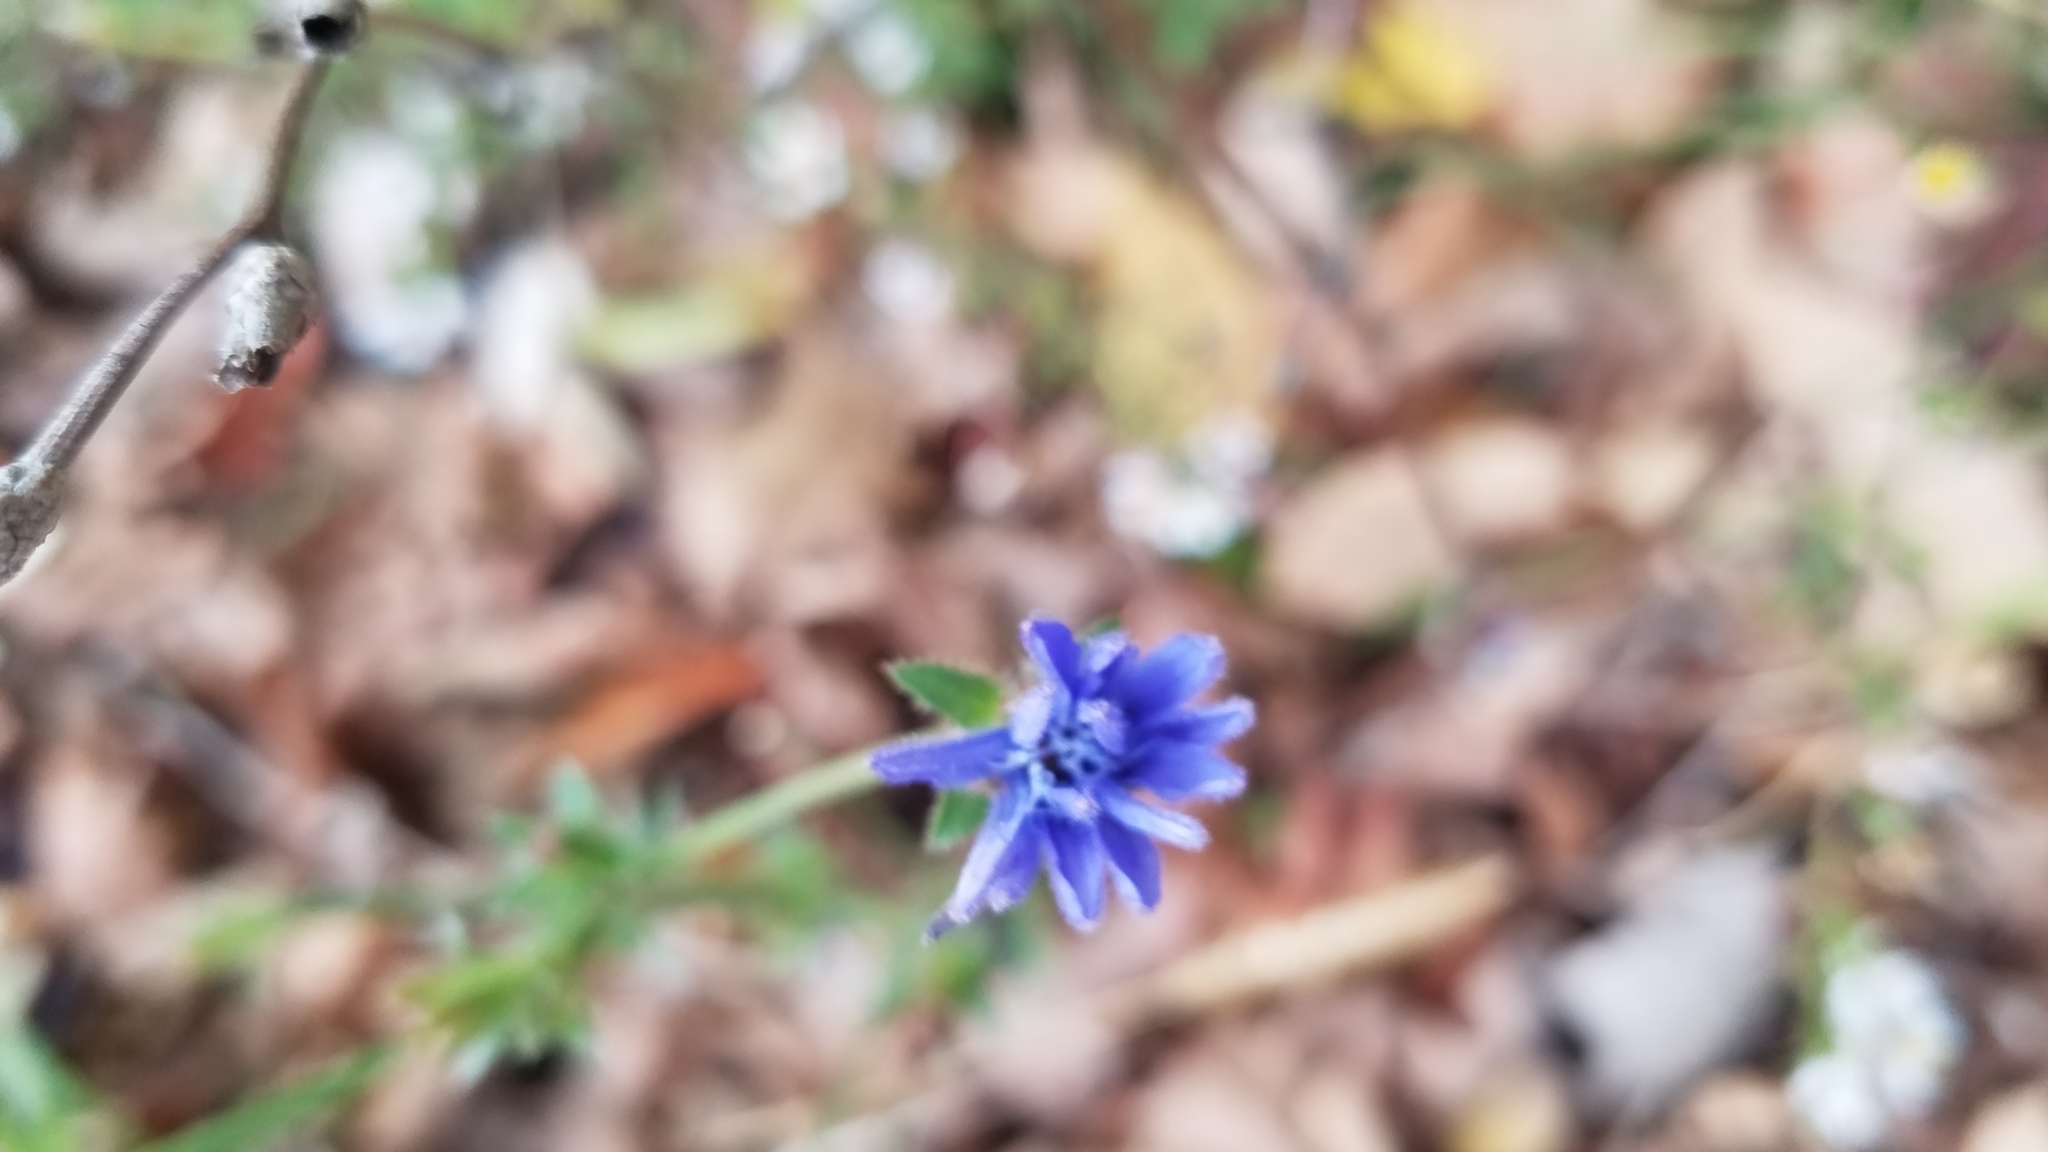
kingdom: Plantae
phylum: Tracheophyta
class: Magnoliopsida
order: Asterales
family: Asteraceae
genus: Cichorium
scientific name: Cichorium intybus
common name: Chicory
